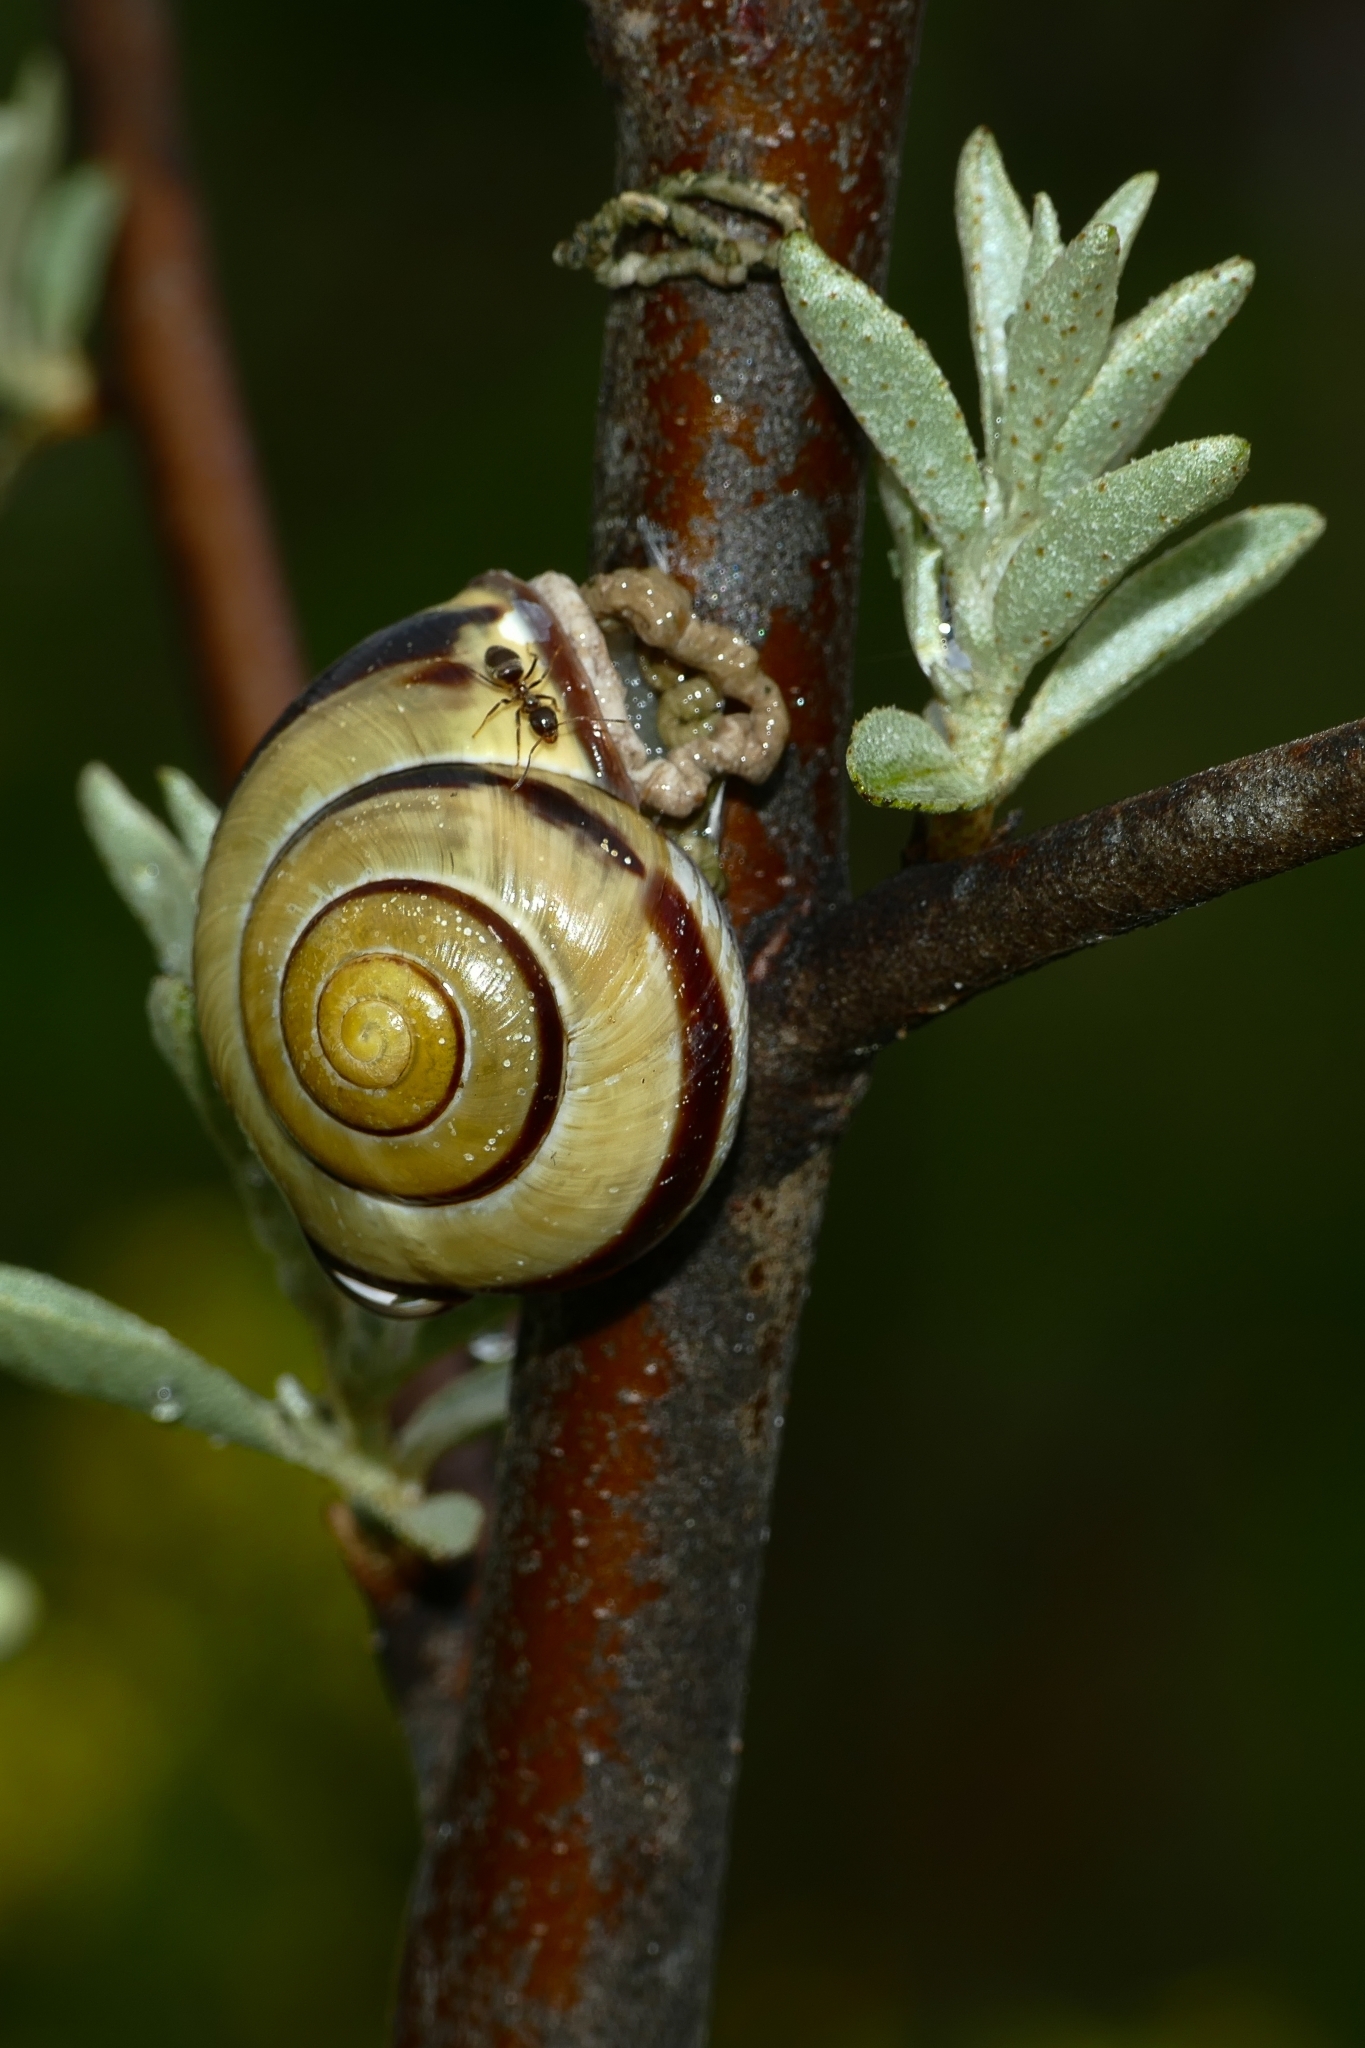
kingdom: Animalia
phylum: Mollusca
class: Gastropoda
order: Stylommatophora
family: Helicidae
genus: Cepaea
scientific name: Cepaea nemoralis
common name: Grovesnail
